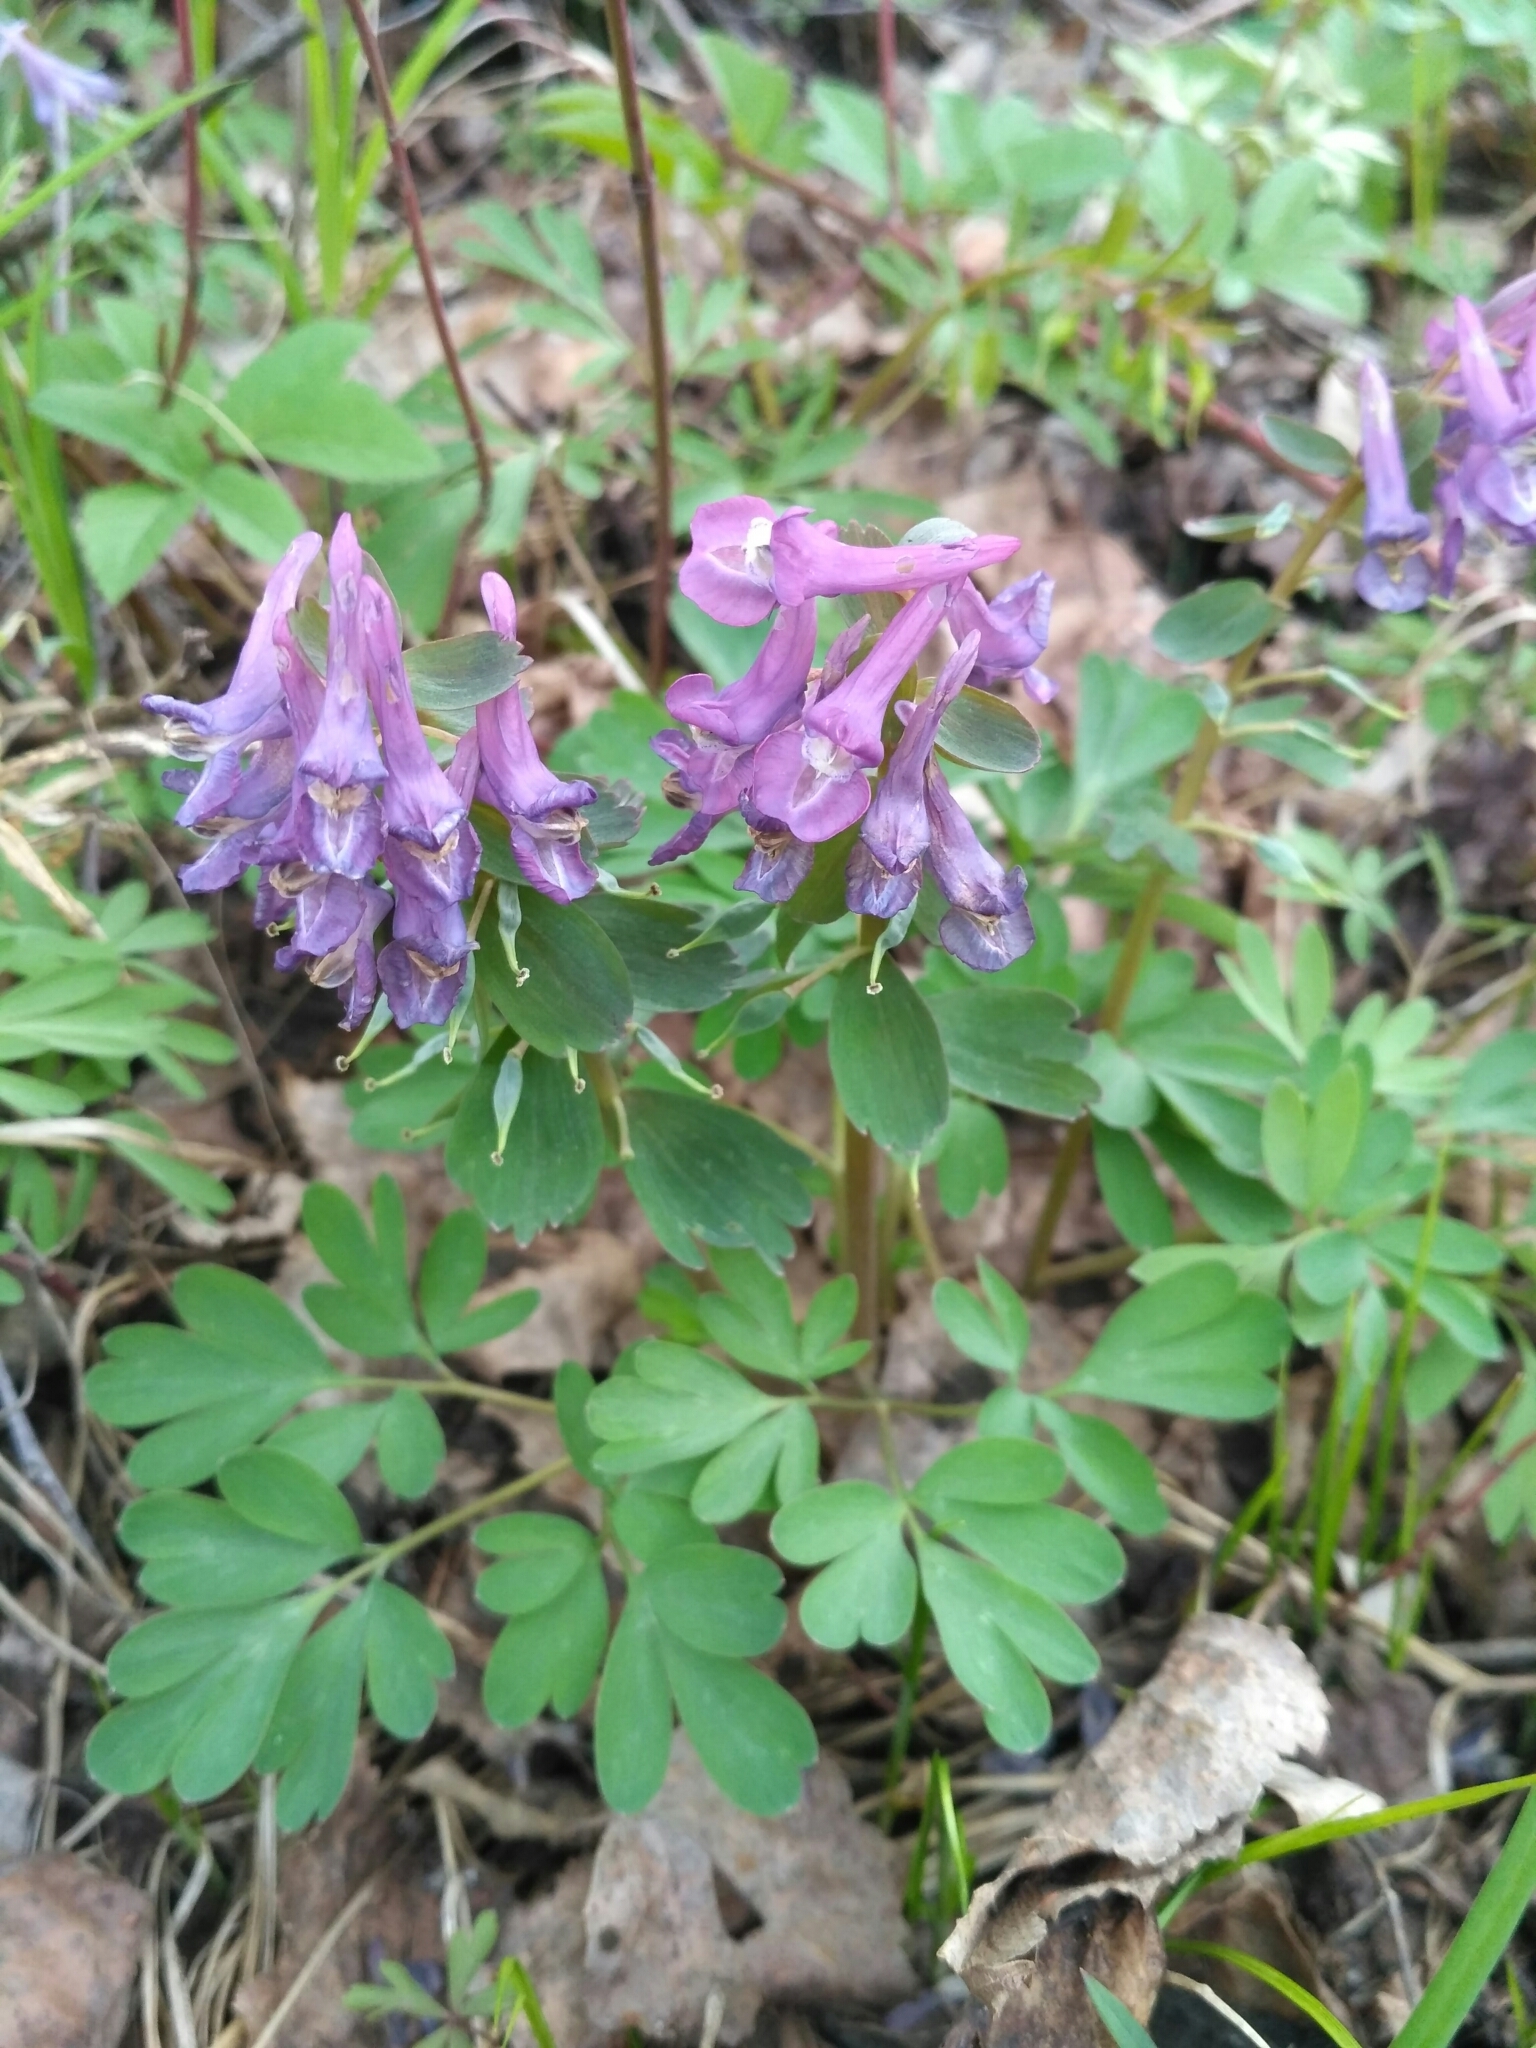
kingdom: Plantae
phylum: Tracheophyta
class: Magnoliopsida
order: Ranunculales
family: Papaveraceae
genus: Corydalis
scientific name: Corydalis solida
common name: Bird-in-a-bush
